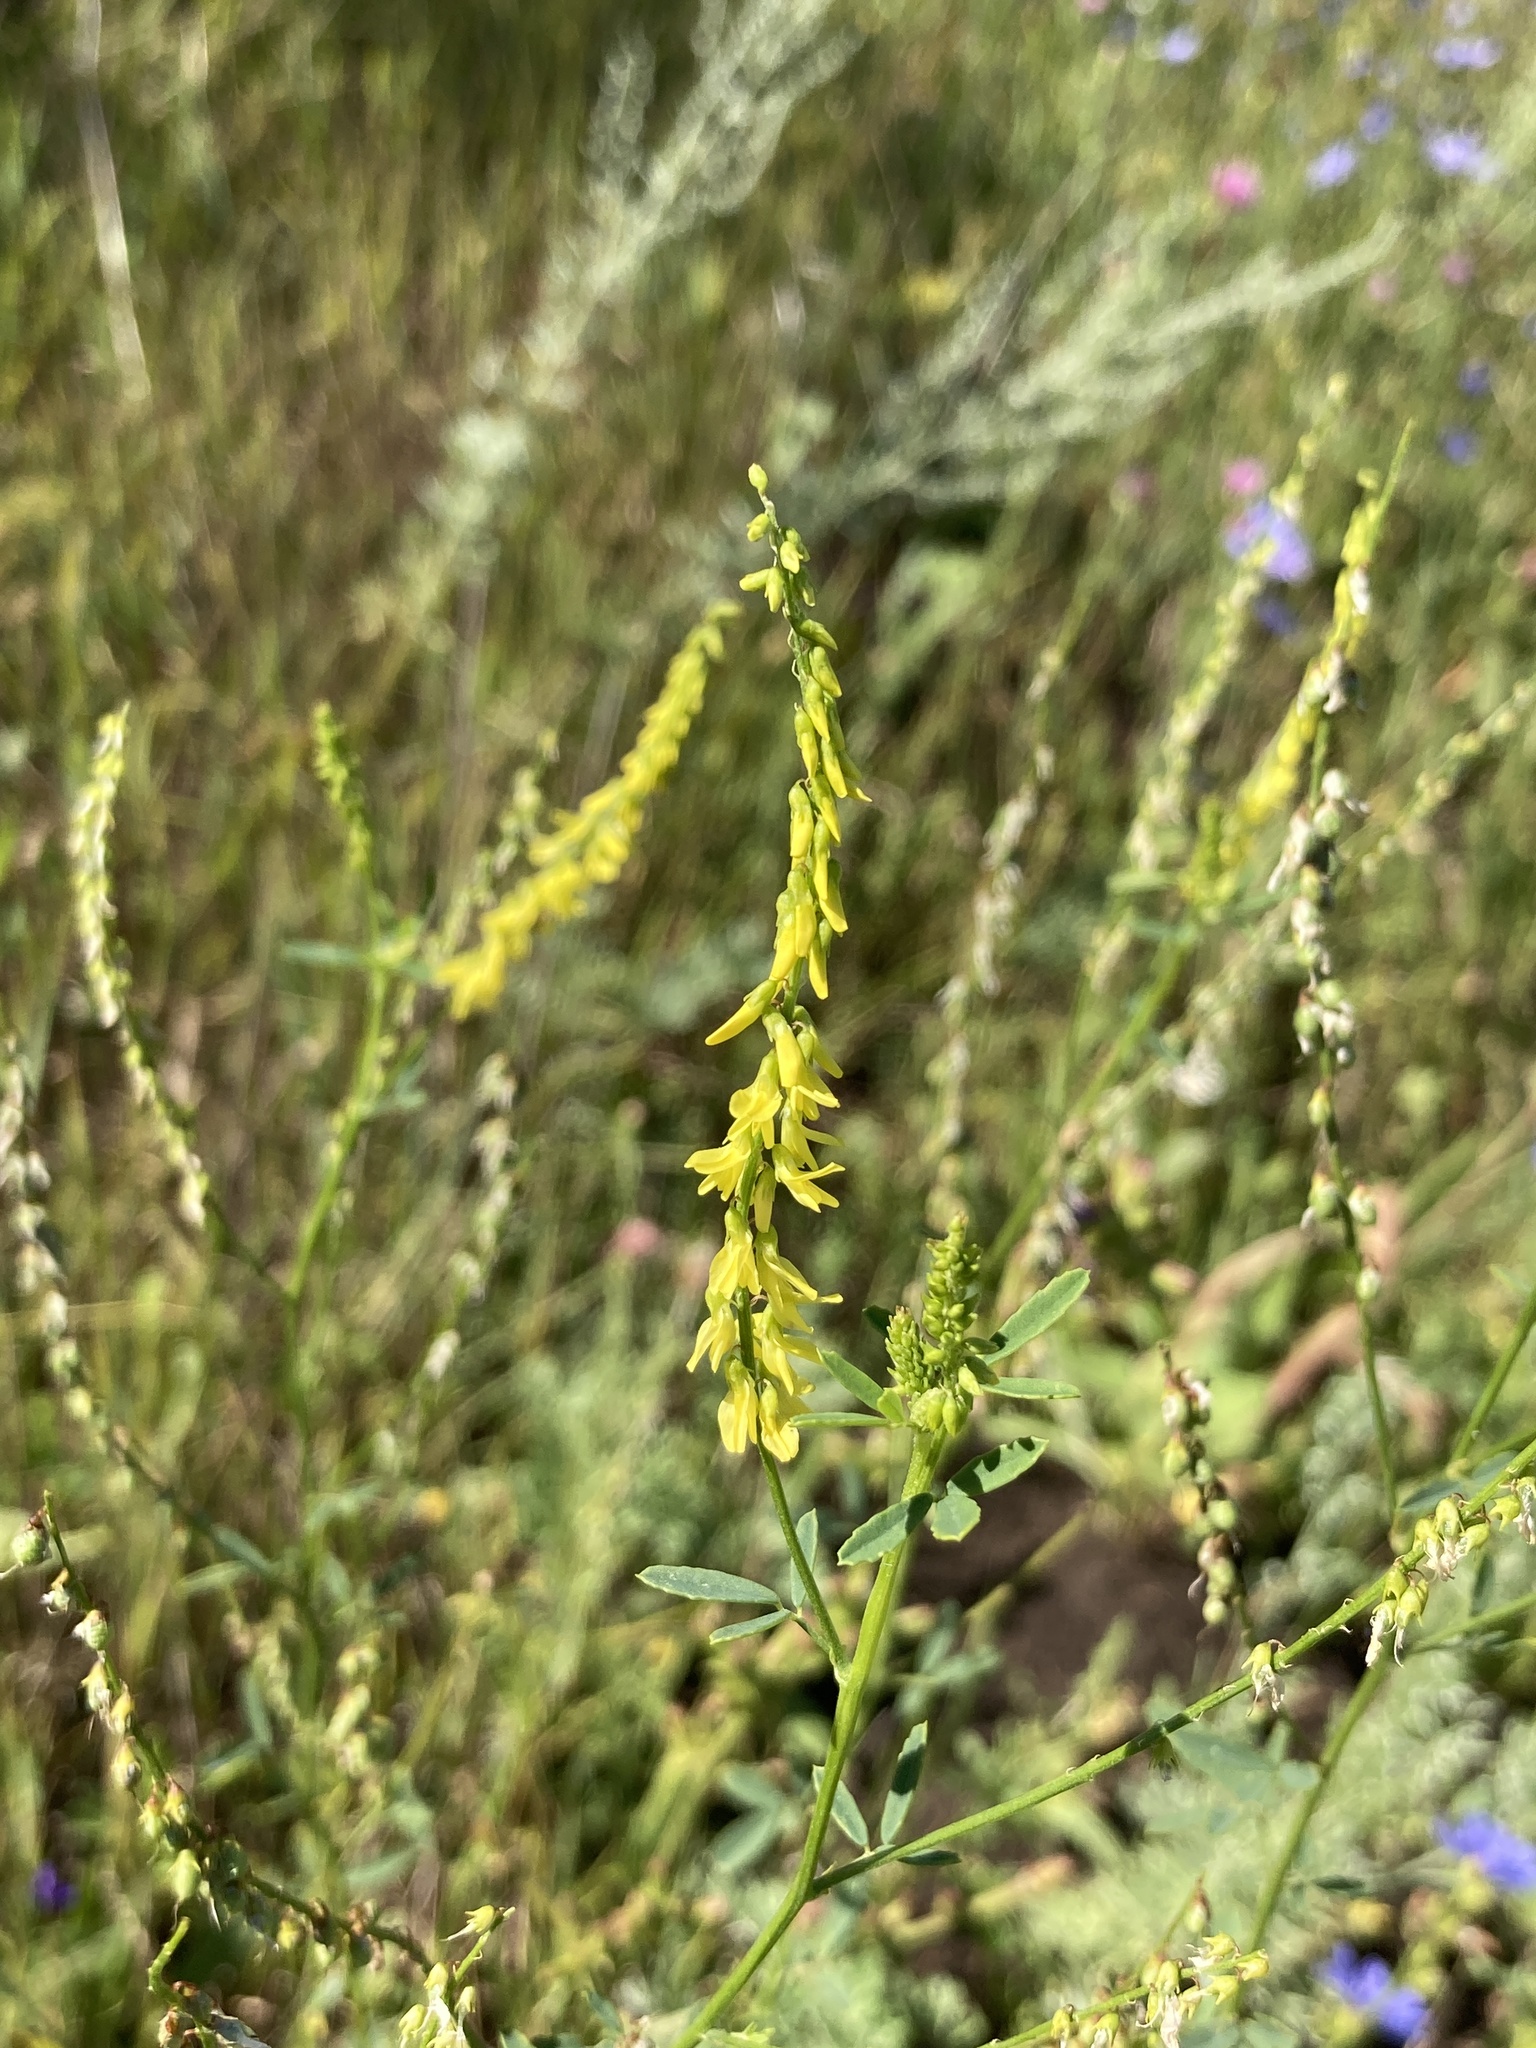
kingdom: Plantae
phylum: Tracheophyta
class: Magnoliopsida
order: Fabales
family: Fabaceae
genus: Melilotus
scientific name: Melilotus officinalis
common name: Sweetclover
